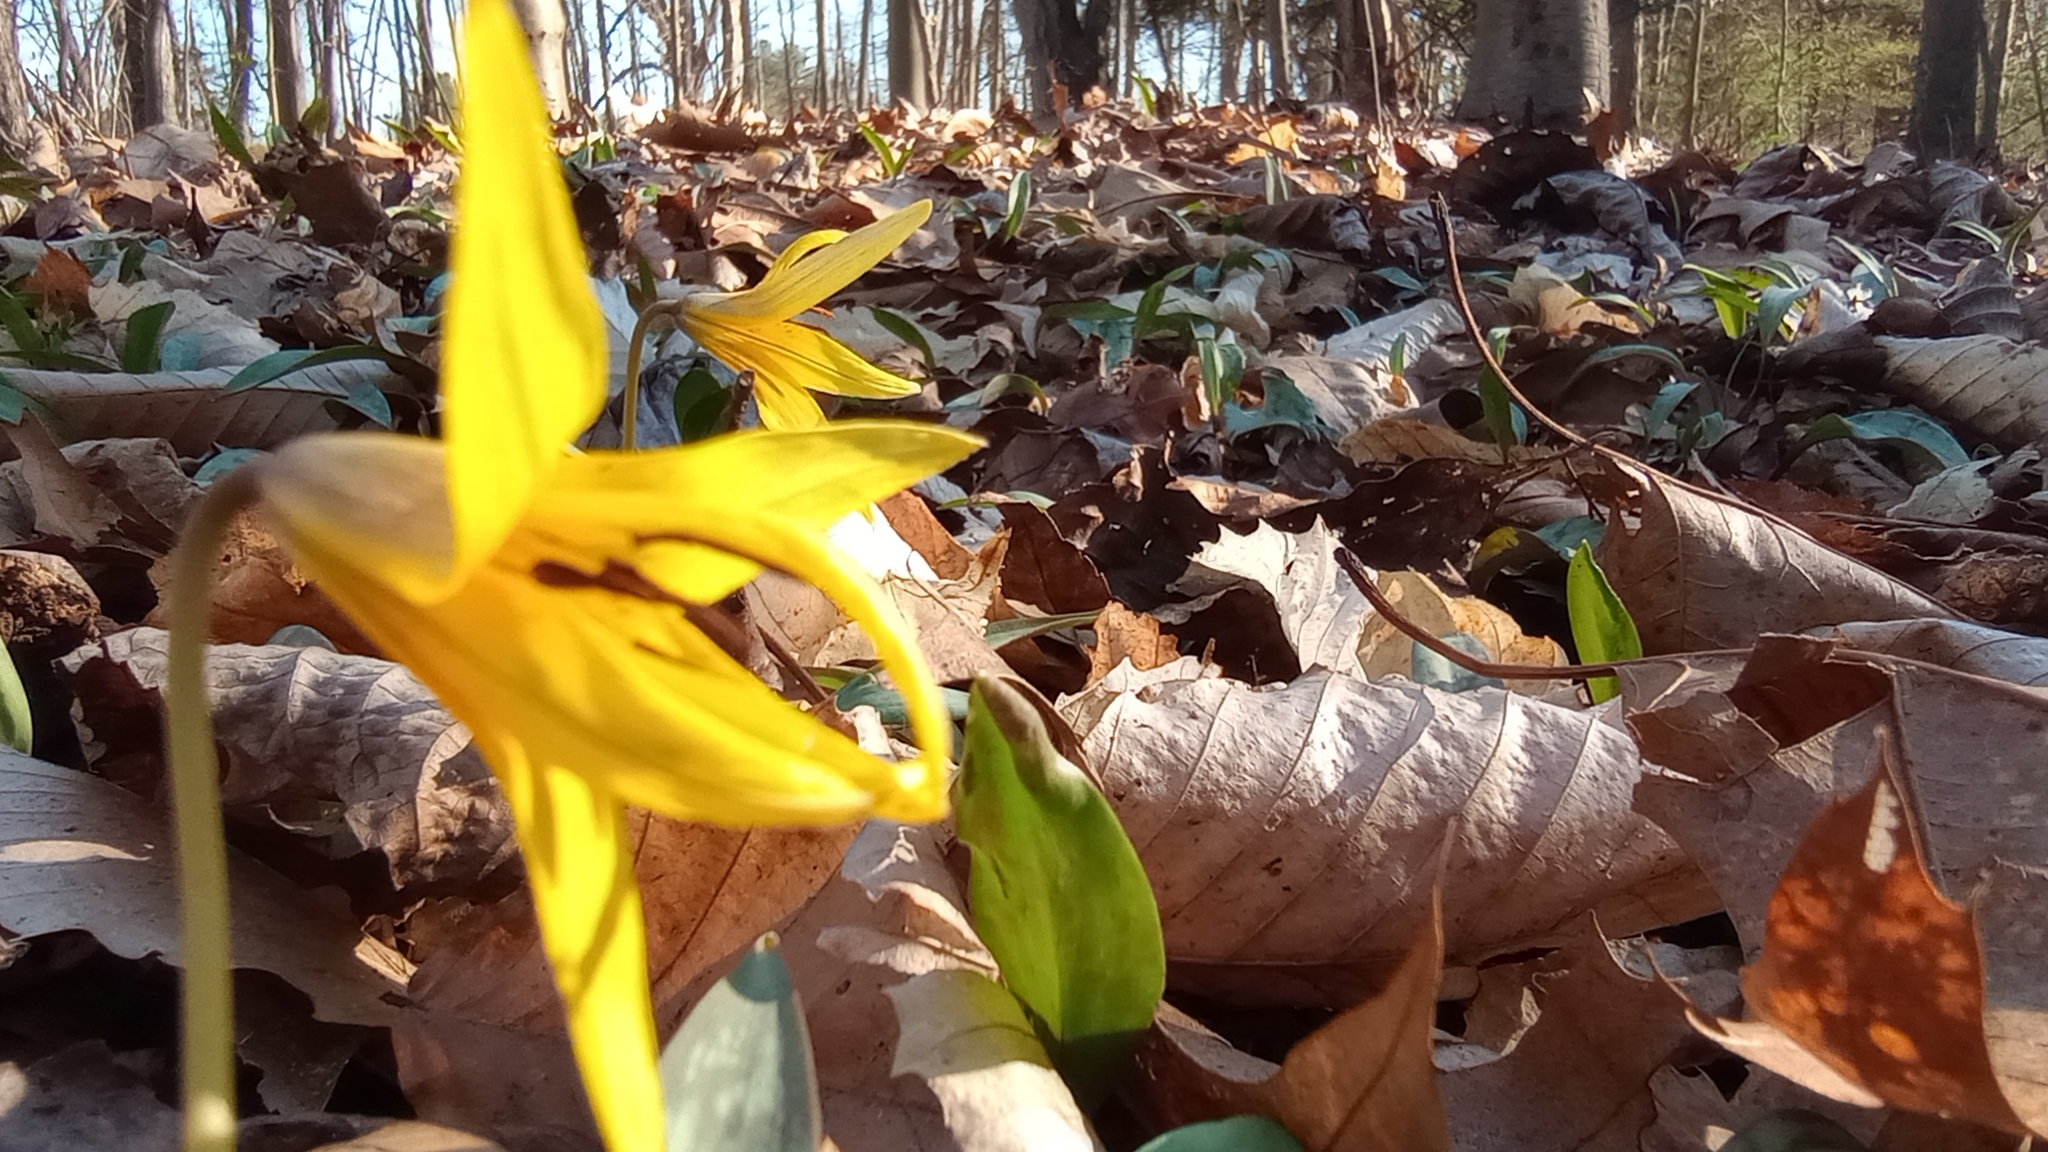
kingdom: Plantae
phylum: Tracheophyta
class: Liliopsida
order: Liliales
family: Liliaceae
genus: Erythronium
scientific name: Erythronium americanum
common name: Yellow adder's-tongue
